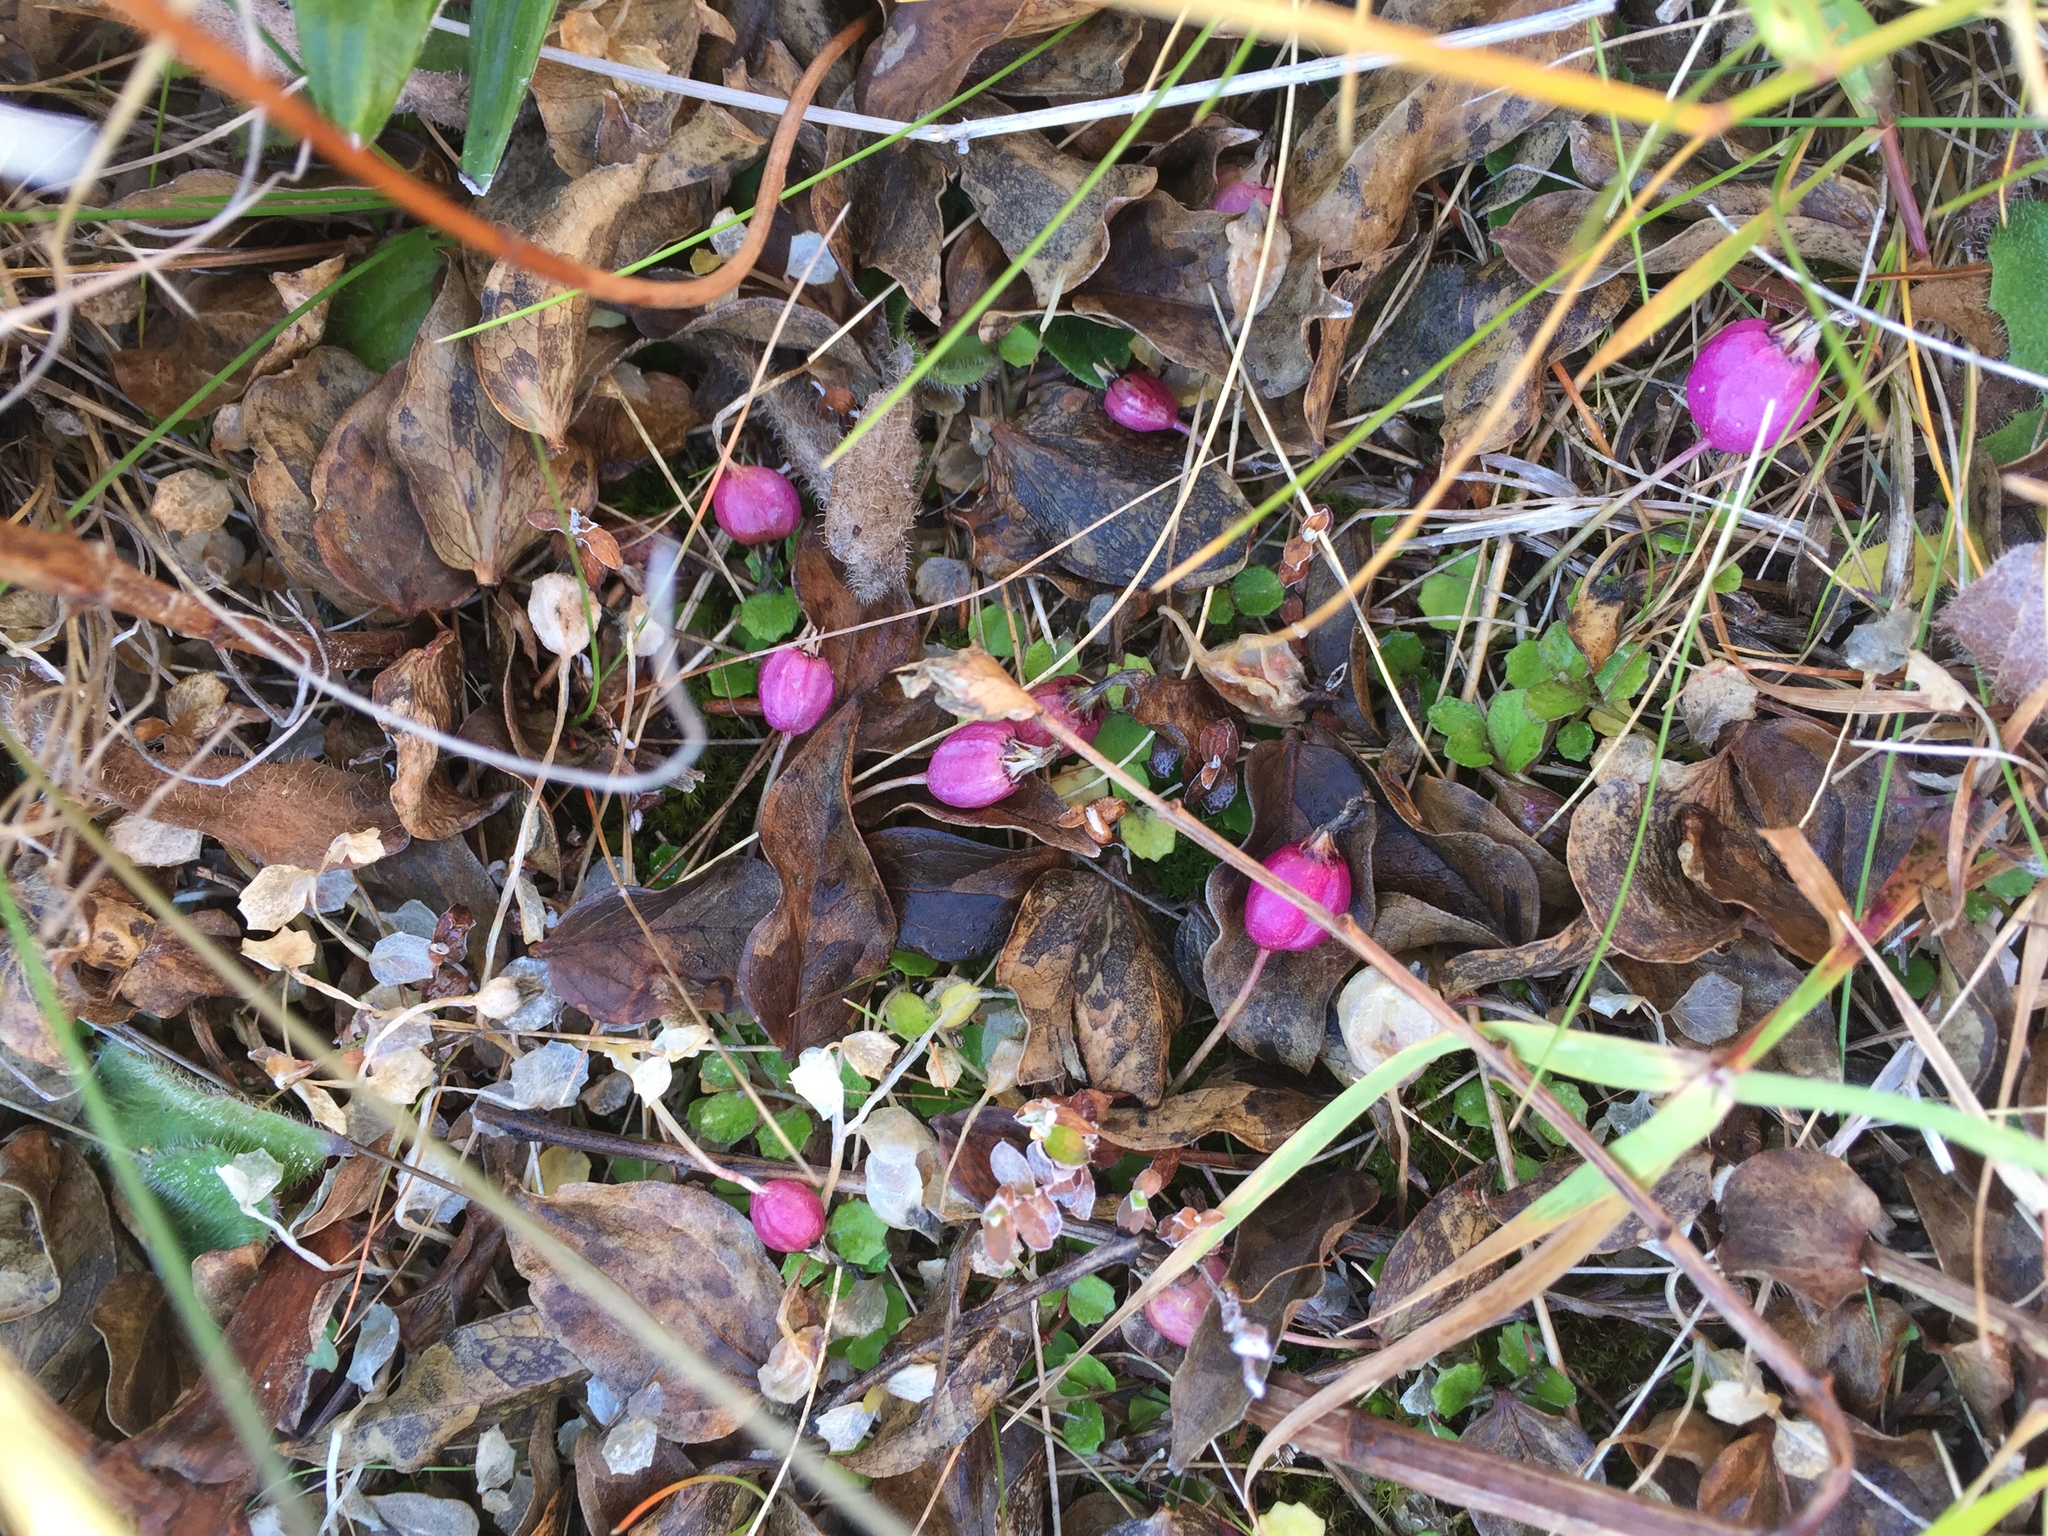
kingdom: Plantae
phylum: Tracheophyta
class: Magnoliopsida
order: Asterales
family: Campanulaceae
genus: Lobelia
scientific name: Lobelia angulata
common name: Lawn lobelia
